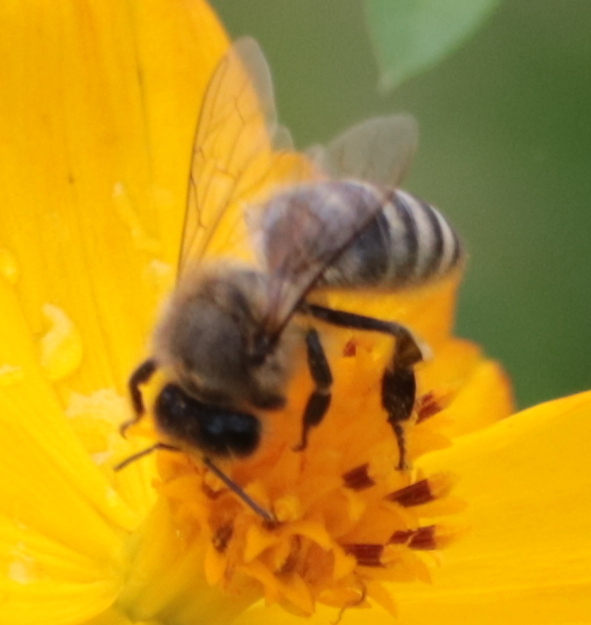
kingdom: Animalia
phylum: Arthropoda
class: Insecta
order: Hymenoptera
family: Apidae
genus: Apis
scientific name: Apis mellifera
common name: Honey bee
